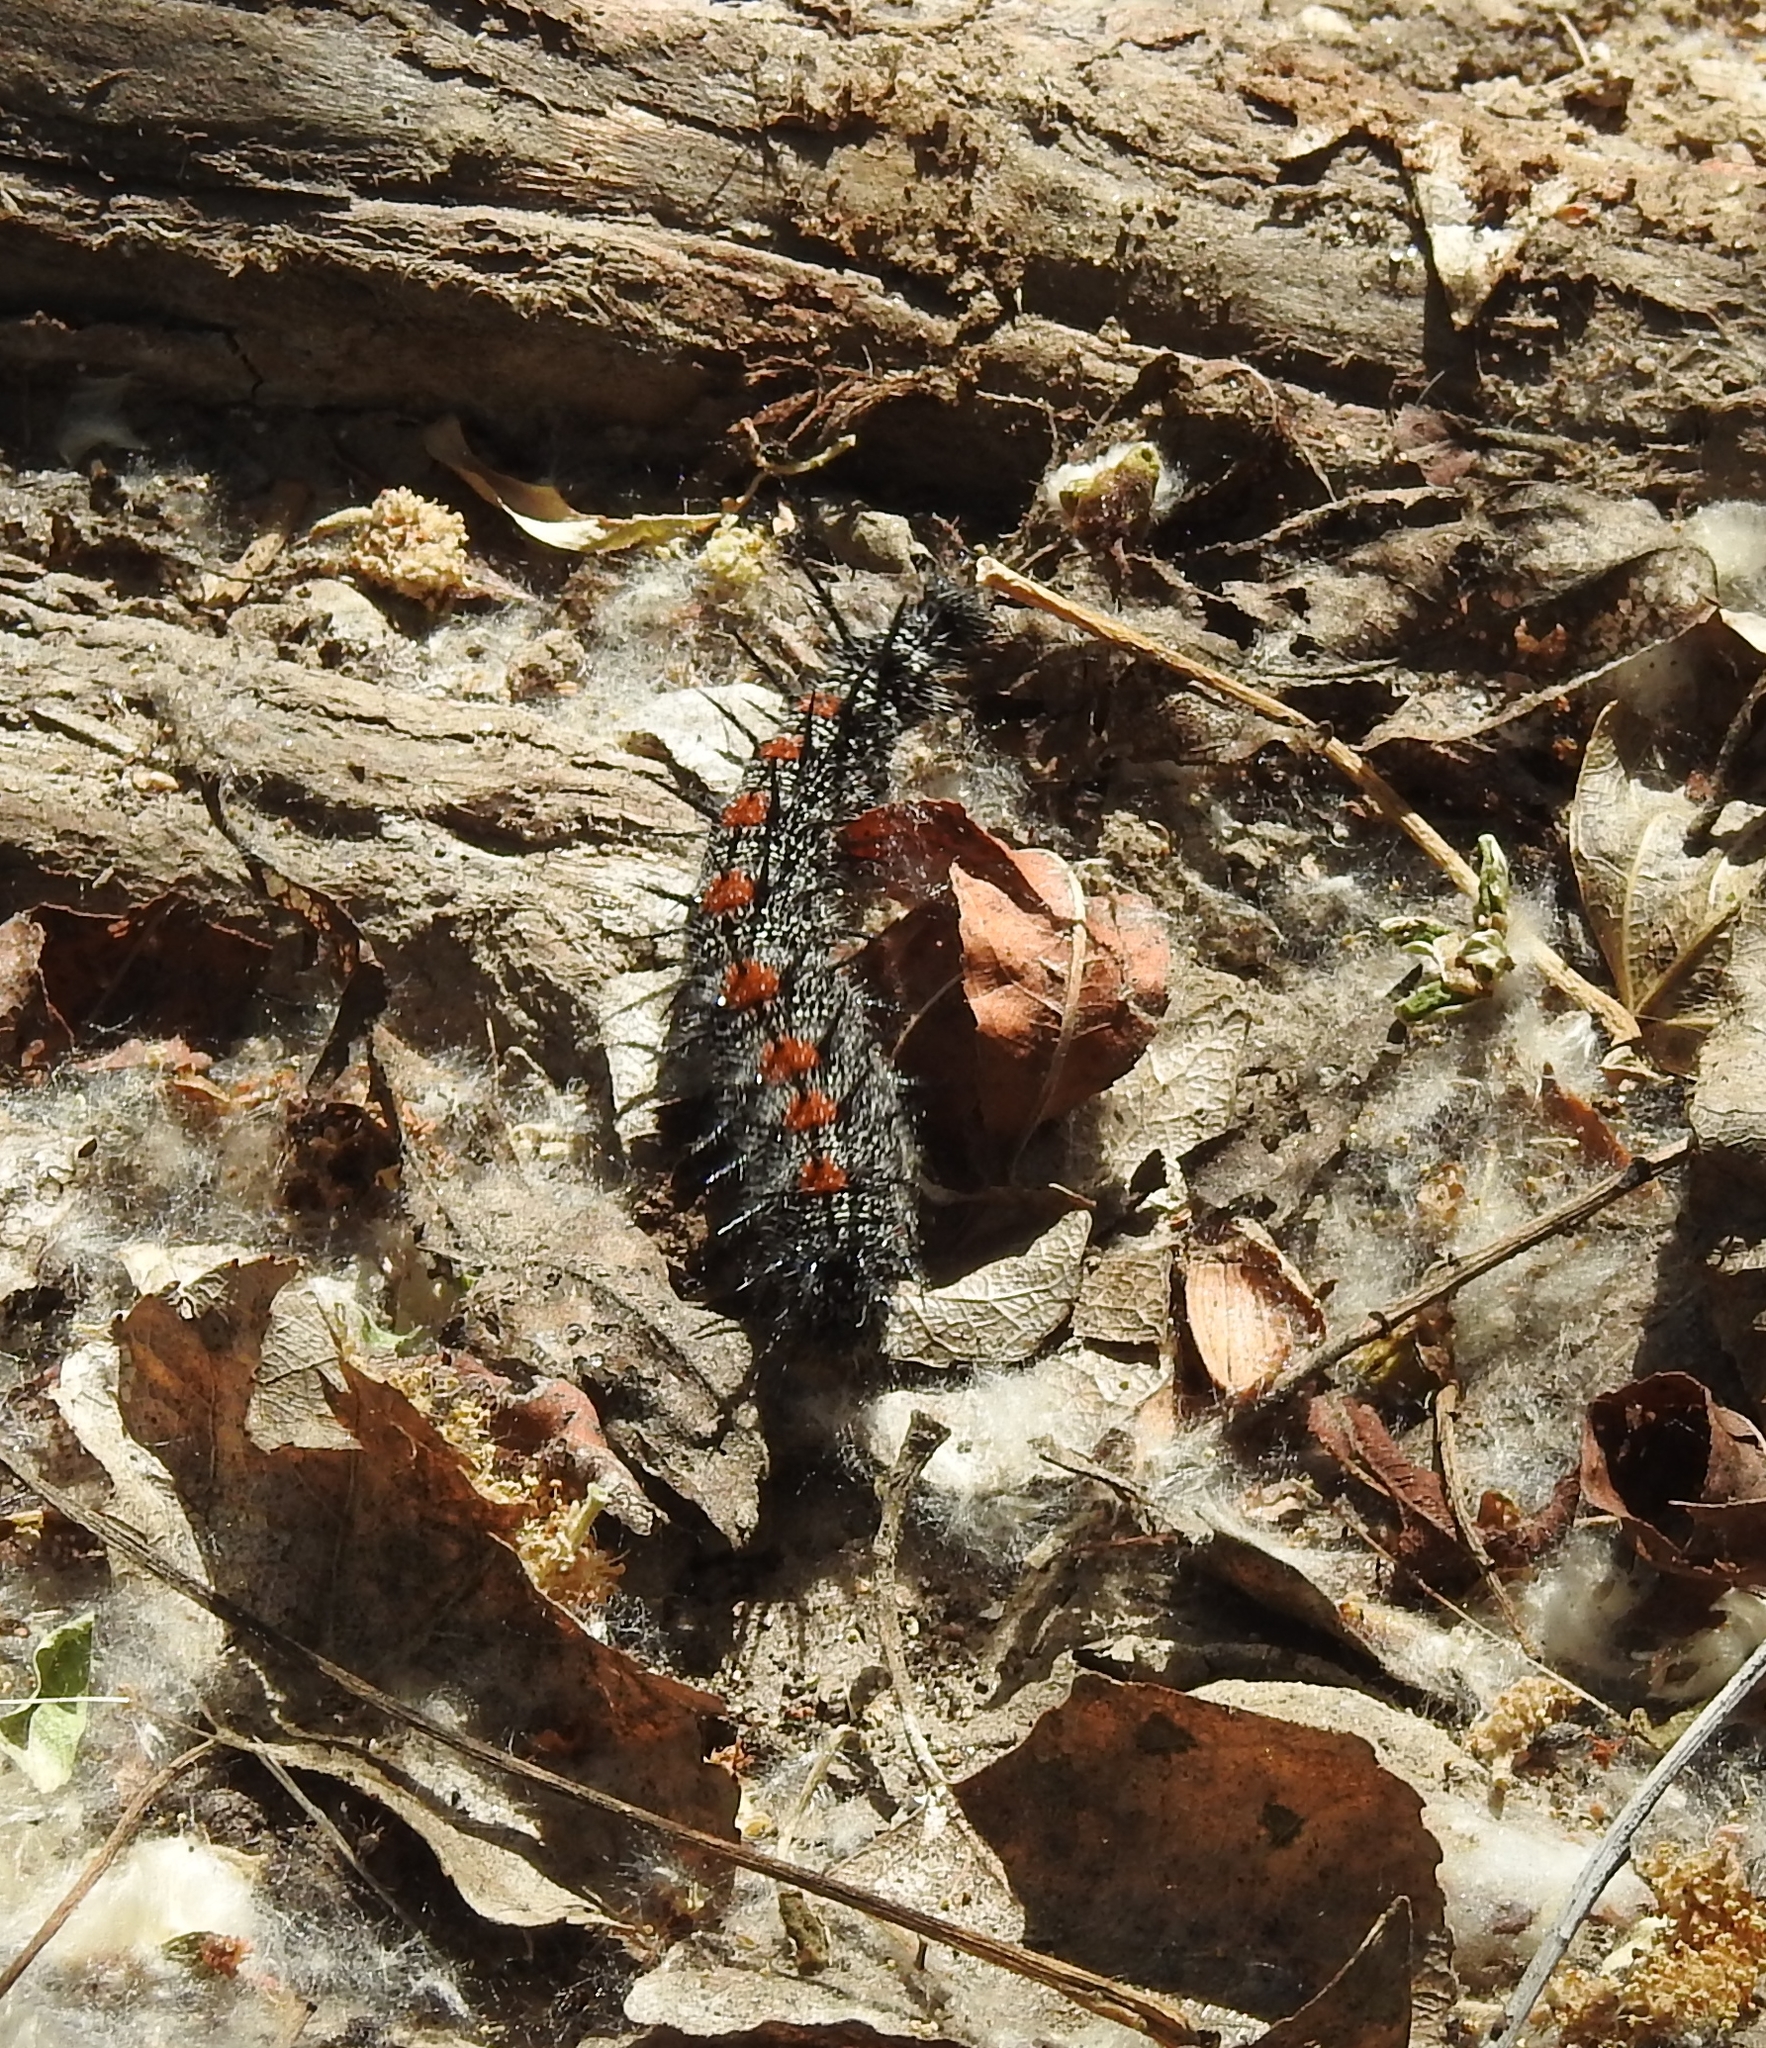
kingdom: Animalia
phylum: Arthropoda
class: Insecta
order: Lepidoptera
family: Nymphalidae
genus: Nymphalis
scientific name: Nymphalis antiopa
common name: Camberwell beauty
